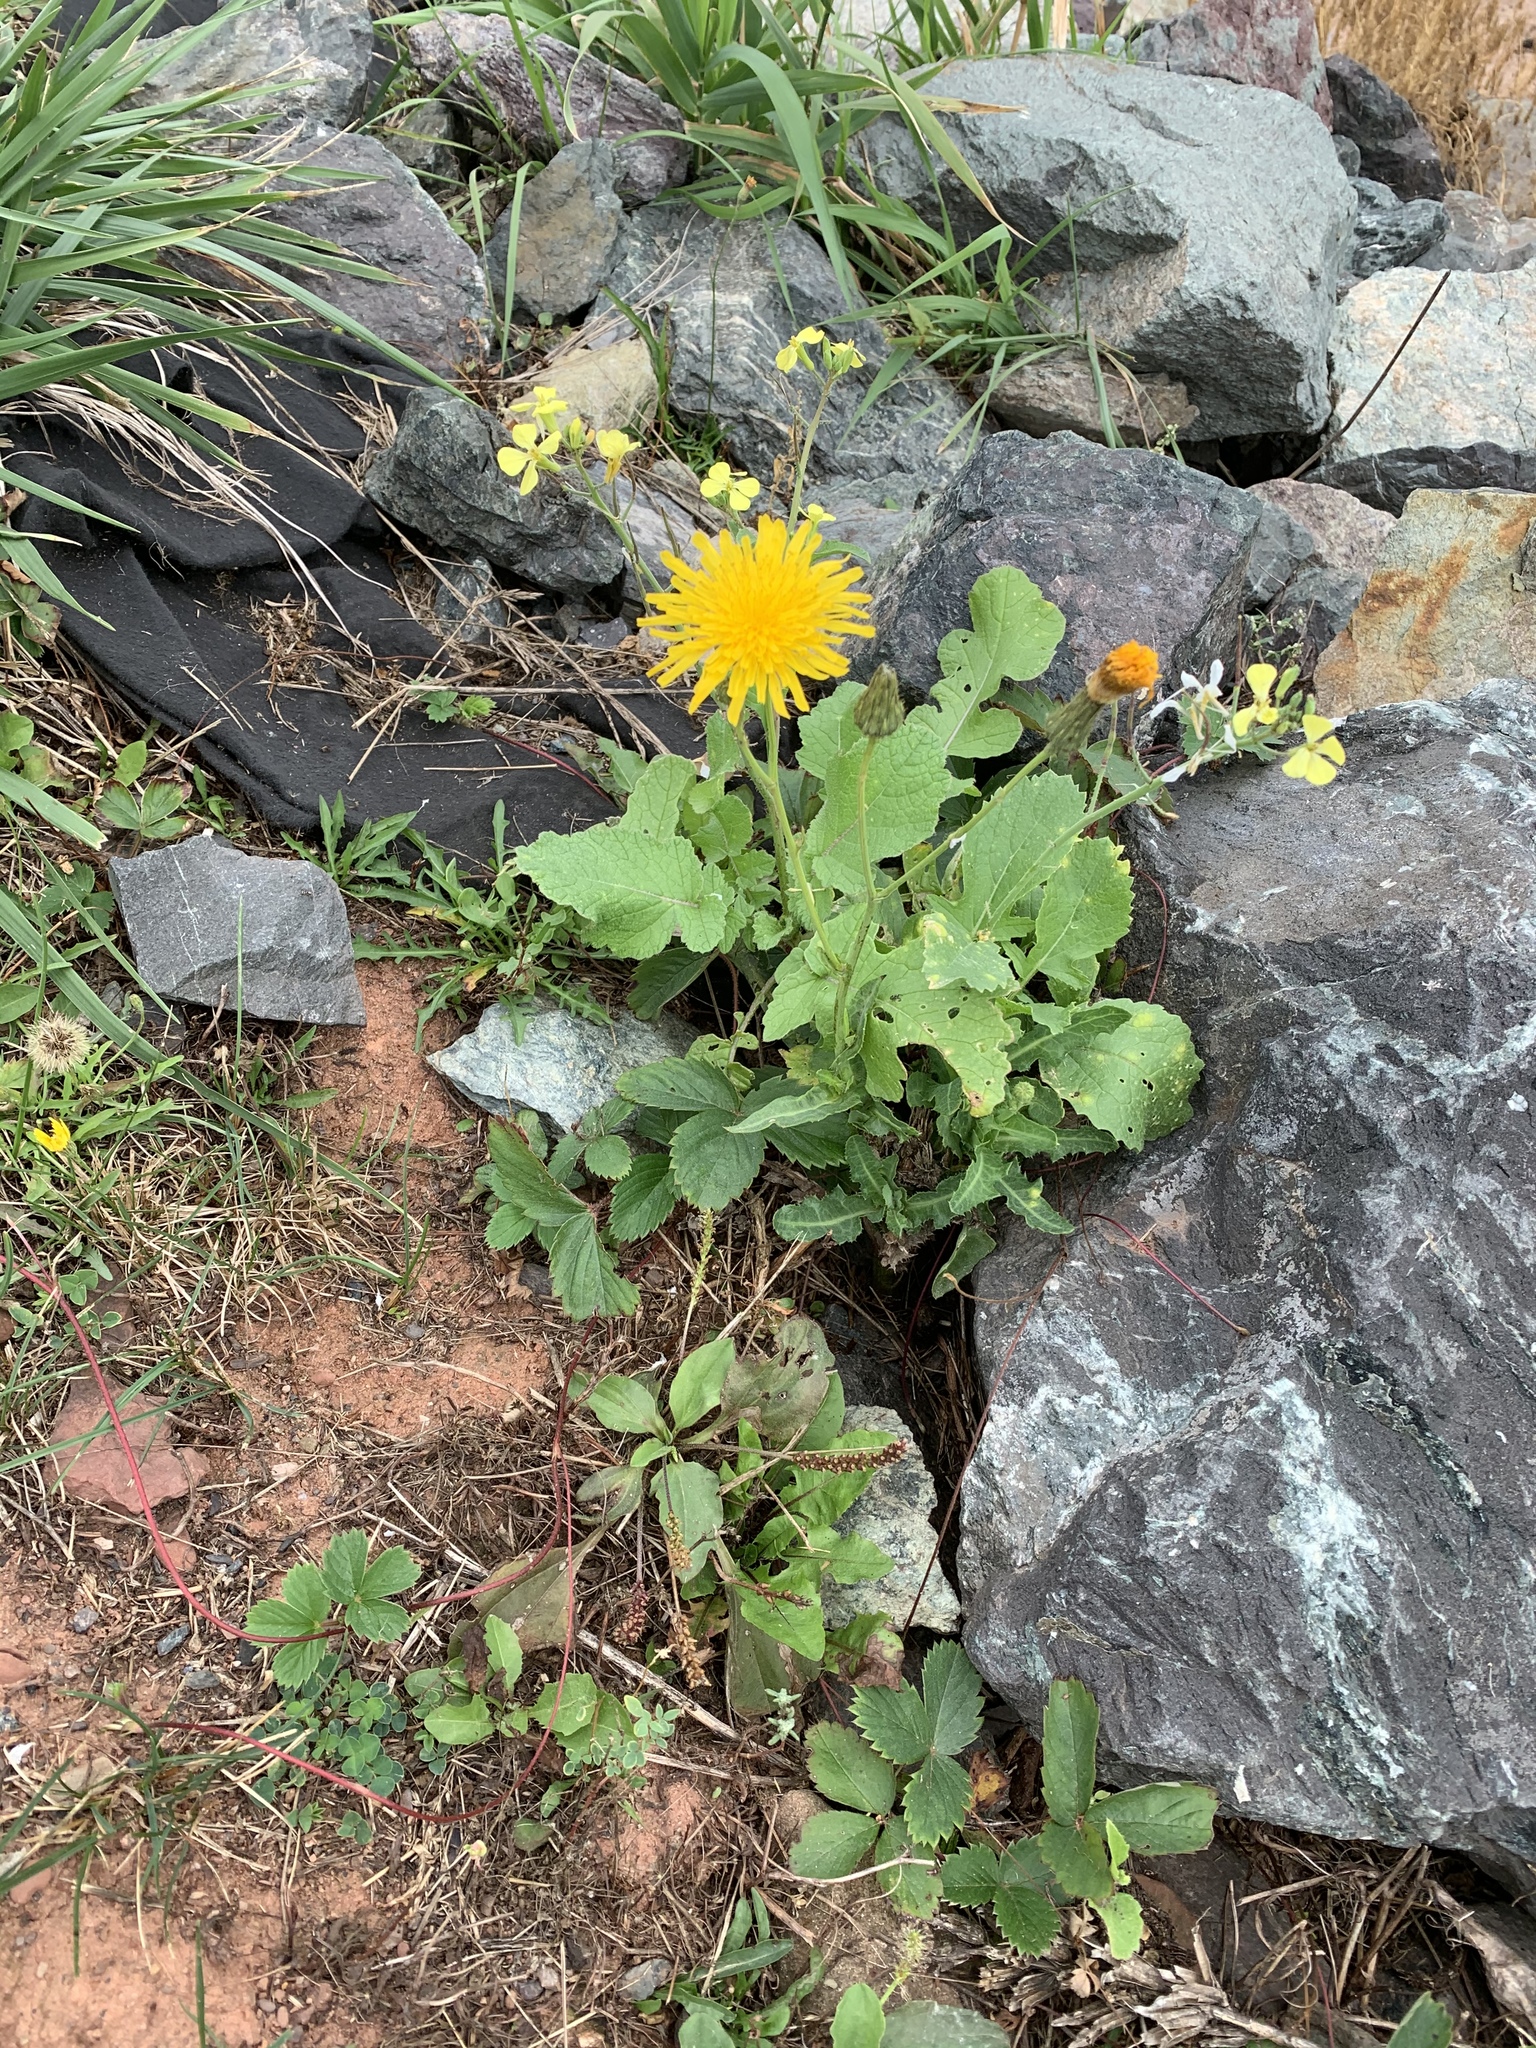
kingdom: Plantae
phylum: Tracheophyta
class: Magnoliopsida
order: Asterales
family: Asteraceae
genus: Sonchus
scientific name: Sonchus arvensis
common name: Perennial sow-thistle
